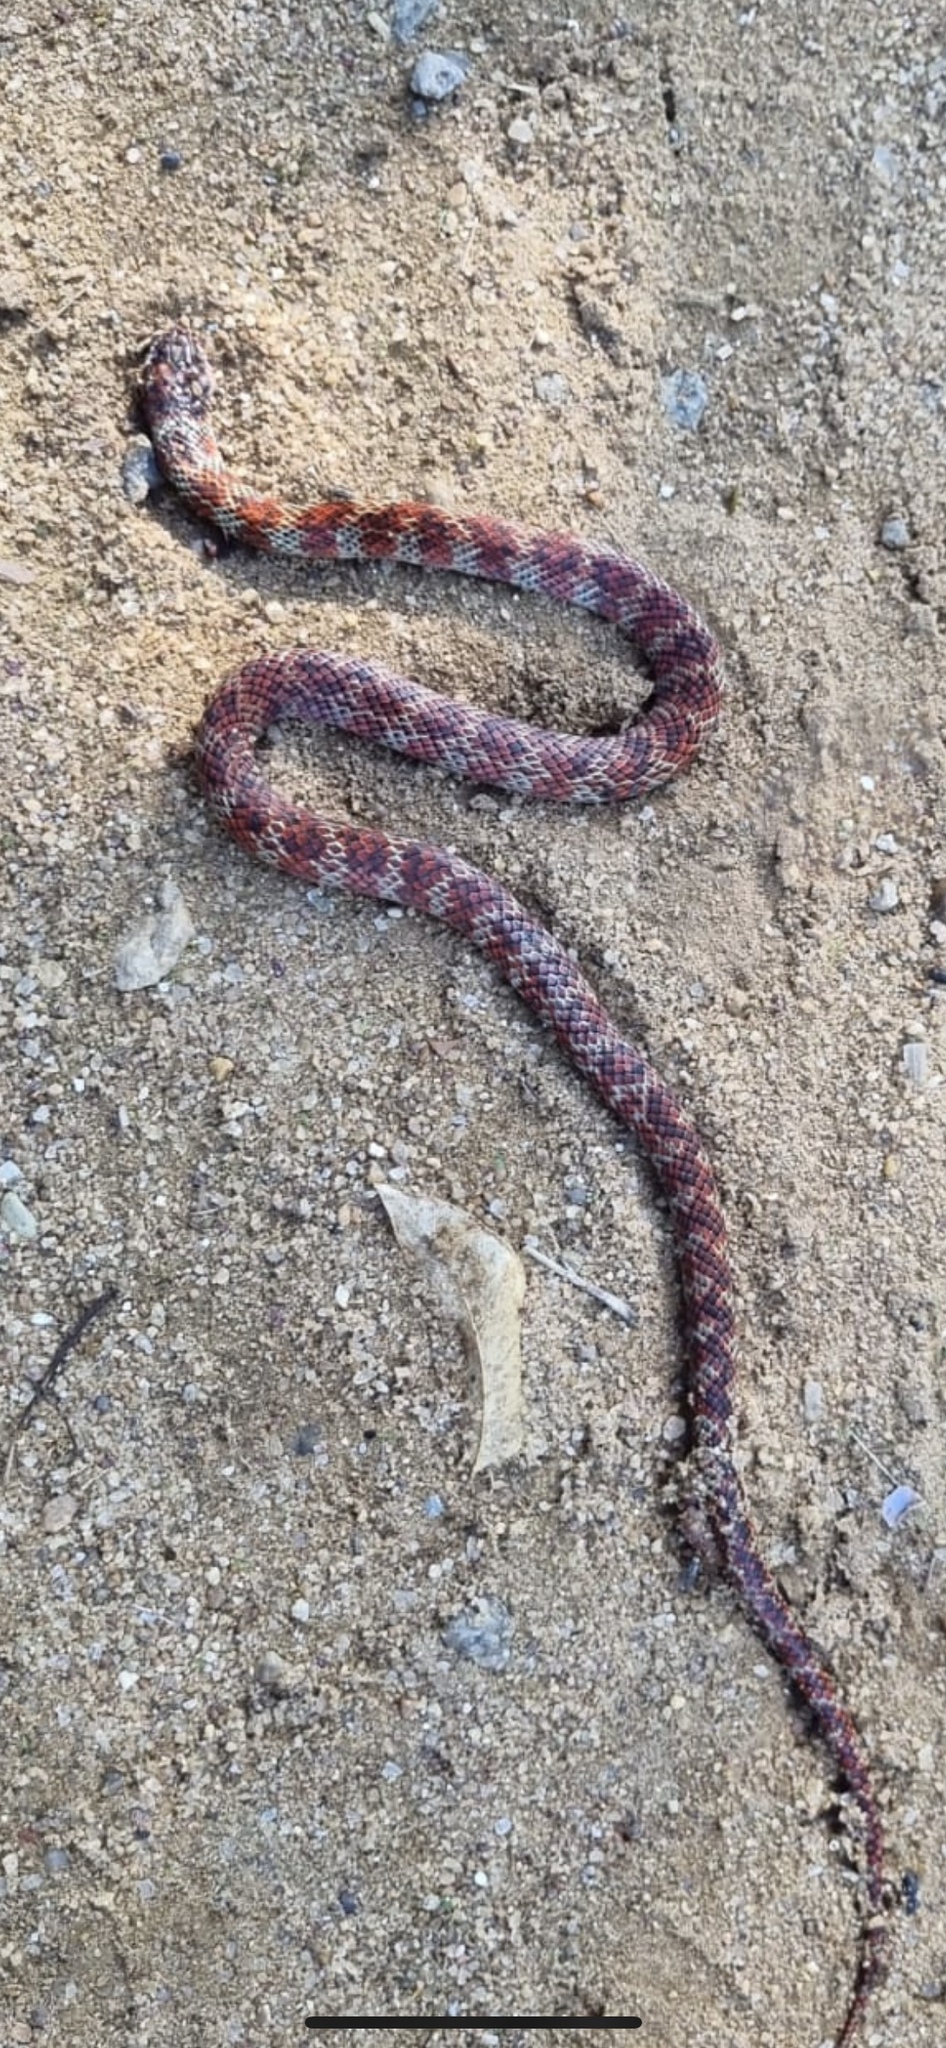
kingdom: Animalia
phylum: Chordata
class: Squamata
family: Colubridae
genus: Erythrolamprus
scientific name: Erythrolamprus poecilogyrus
